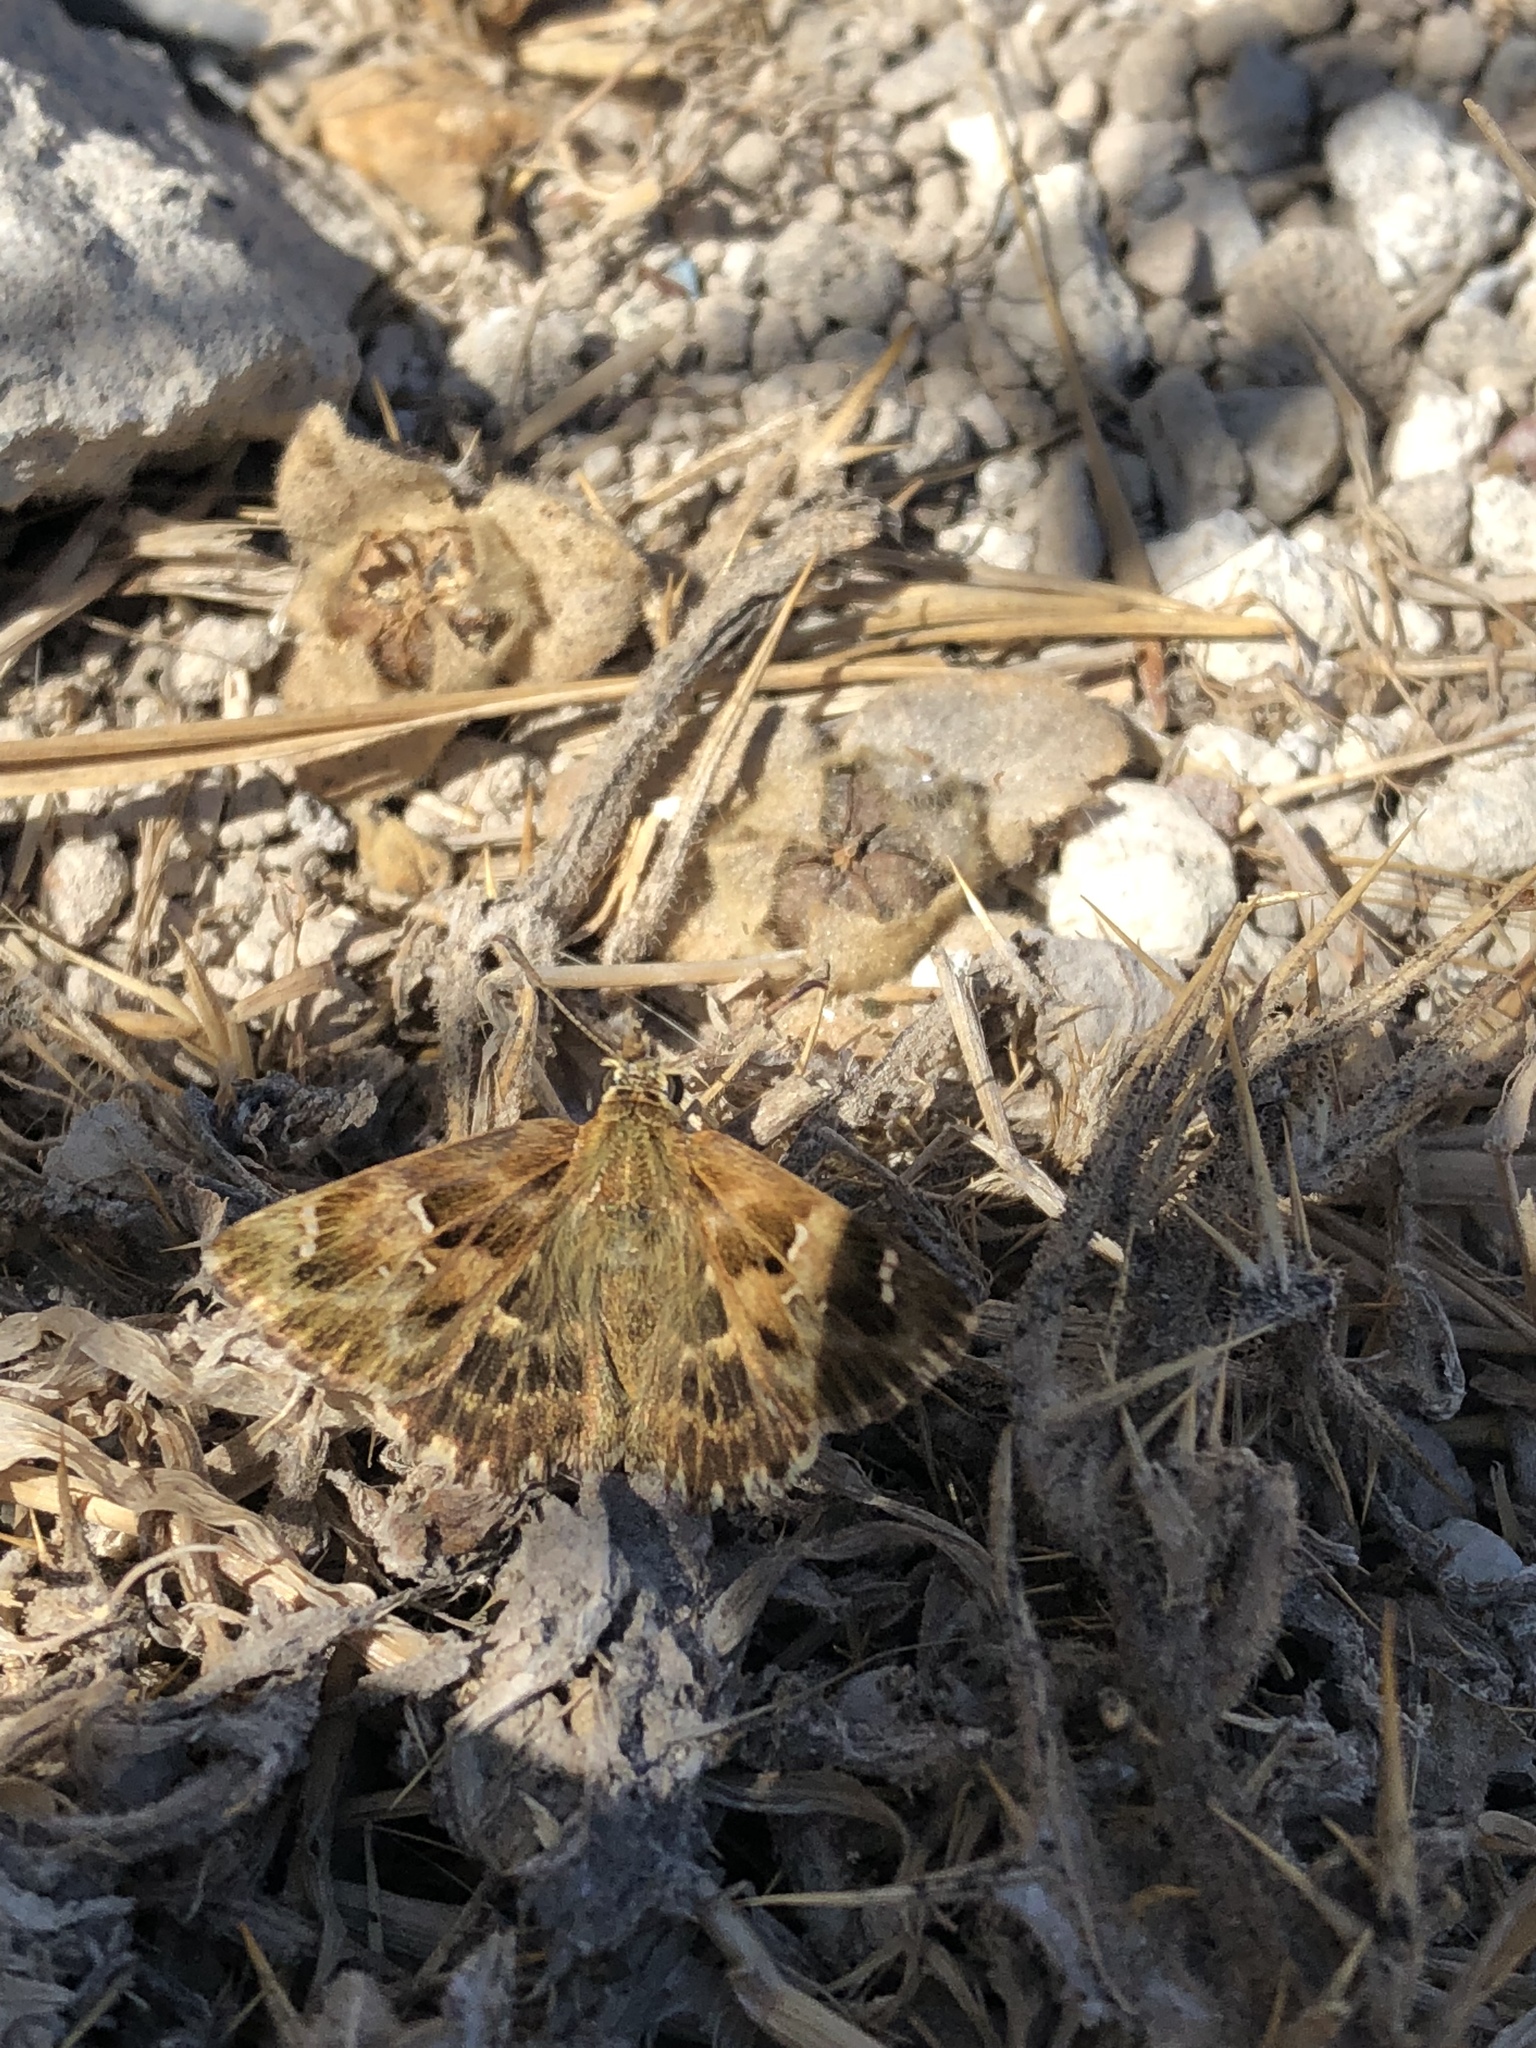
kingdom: Animalia
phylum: Arthropoda
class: Insecta
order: Lepidoptera
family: Hesperiidae
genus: Carcharodus
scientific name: Carcharodus alceae
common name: Mallow skipper
